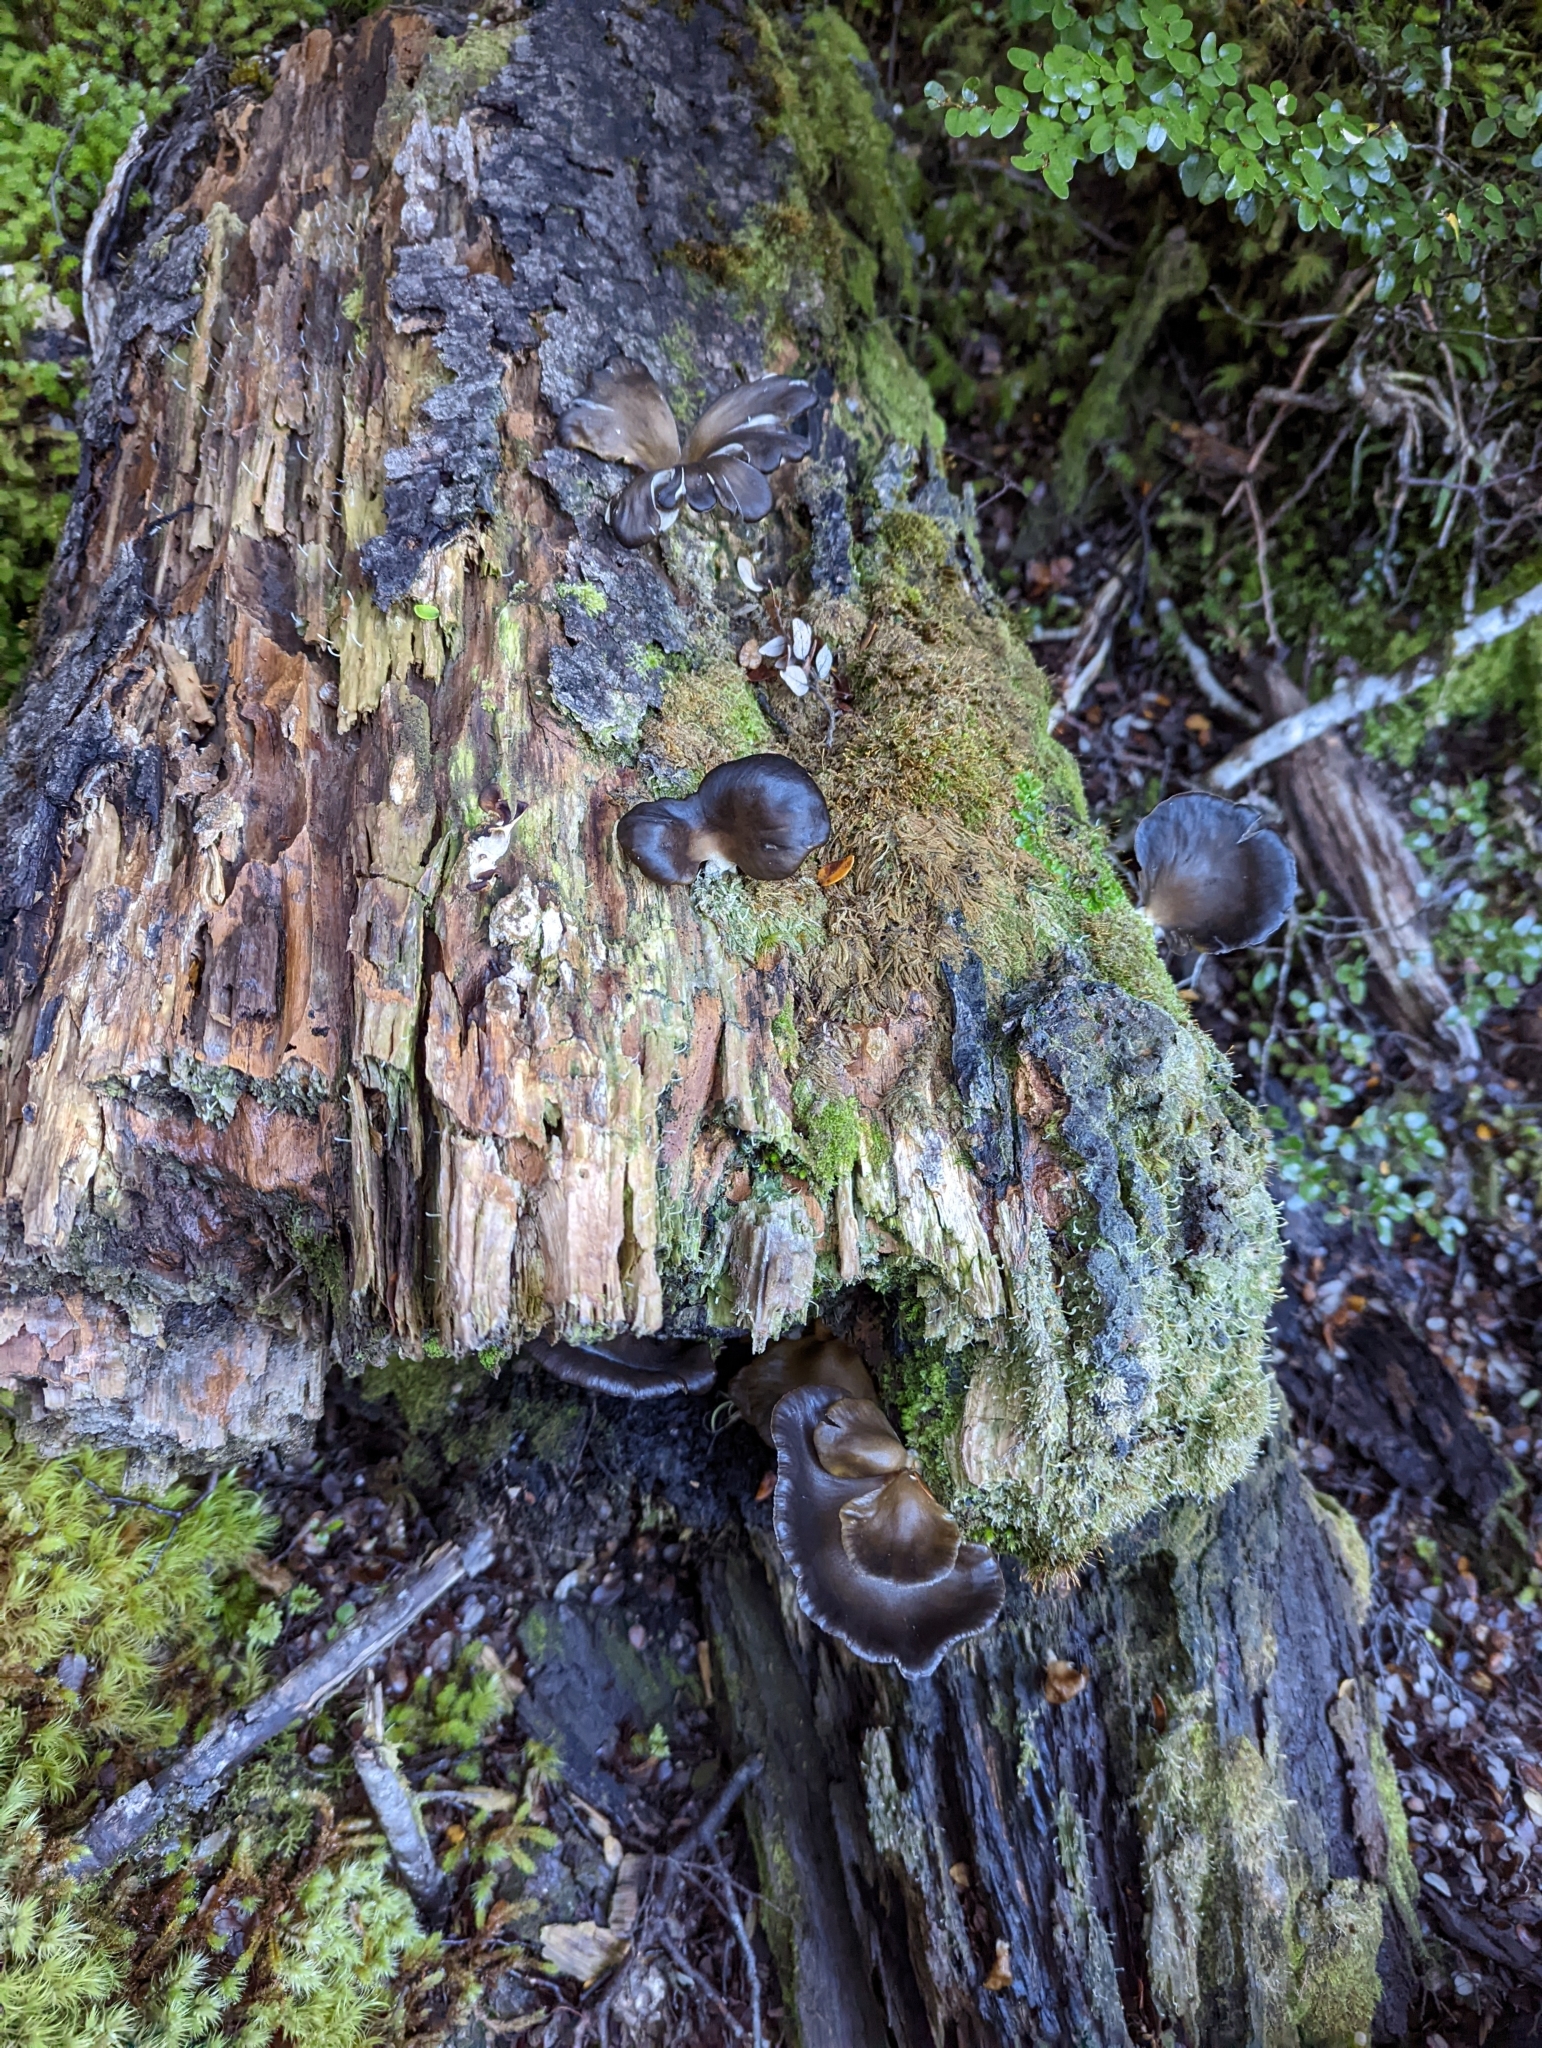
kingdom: Fungi
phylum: Basidiomycota
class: Agaricomycetes
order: Agaricales
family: Pleurotaceae
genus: Pleurotus
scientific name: Pleurotus purpureo-olivaceus
